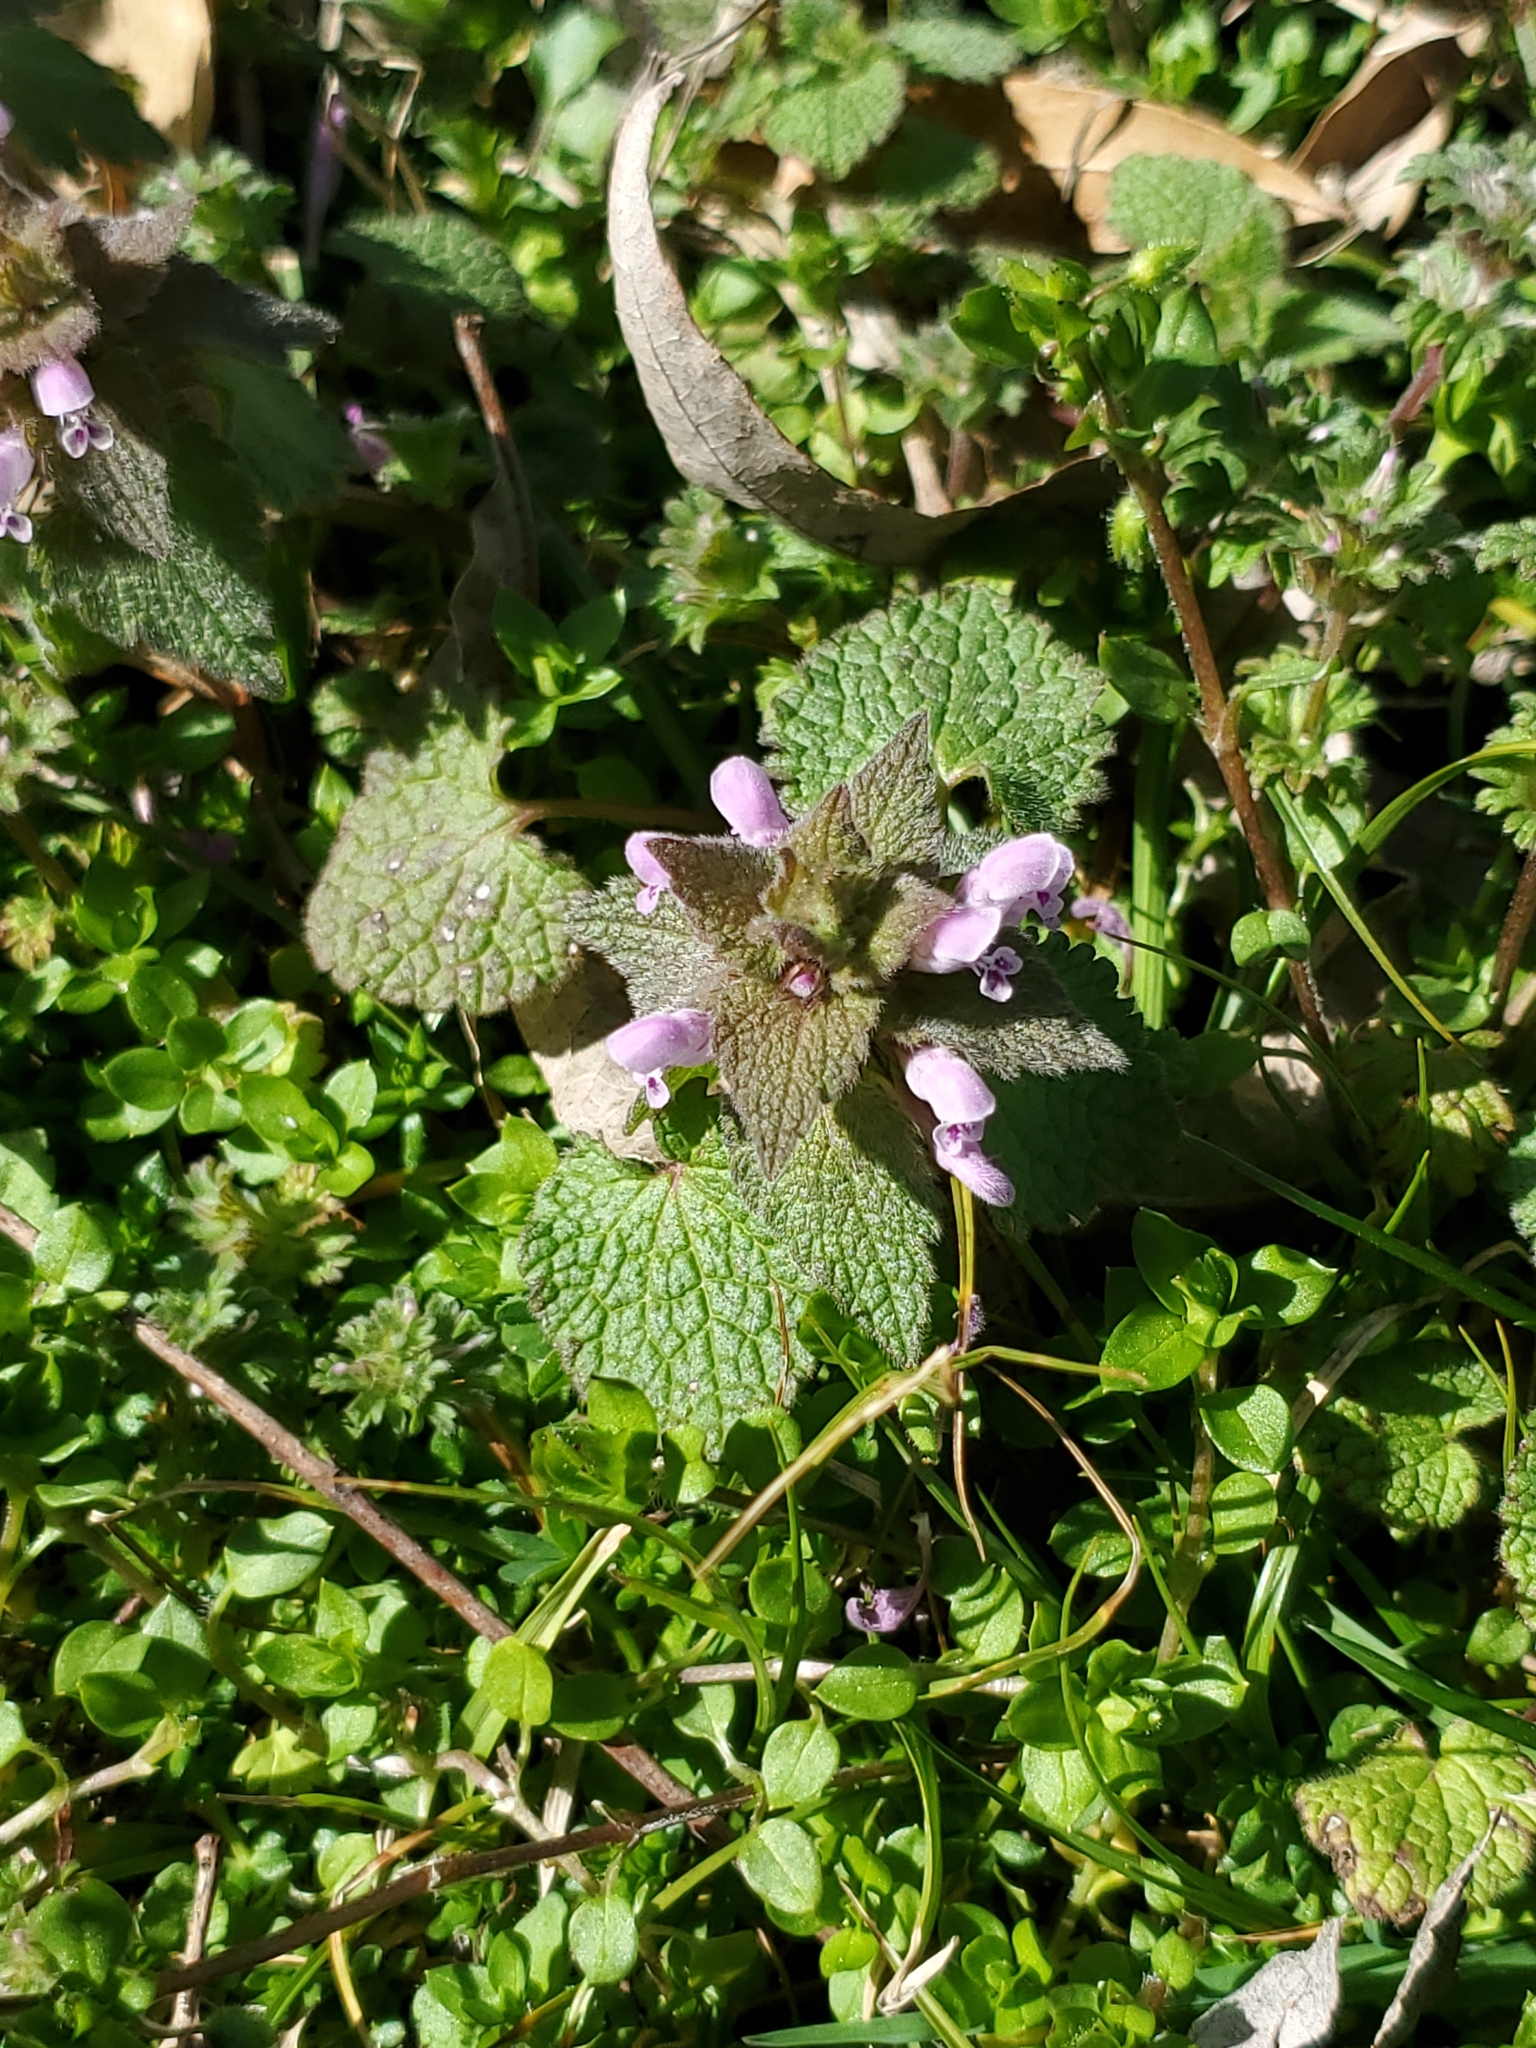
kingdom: Plantae
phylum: Tracheophyta
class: Magnoliopsida
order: Lamiales
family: Lamiaceae
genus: Lamium
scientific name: Lamium amplexicaule
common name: Henbit dead-nettle
